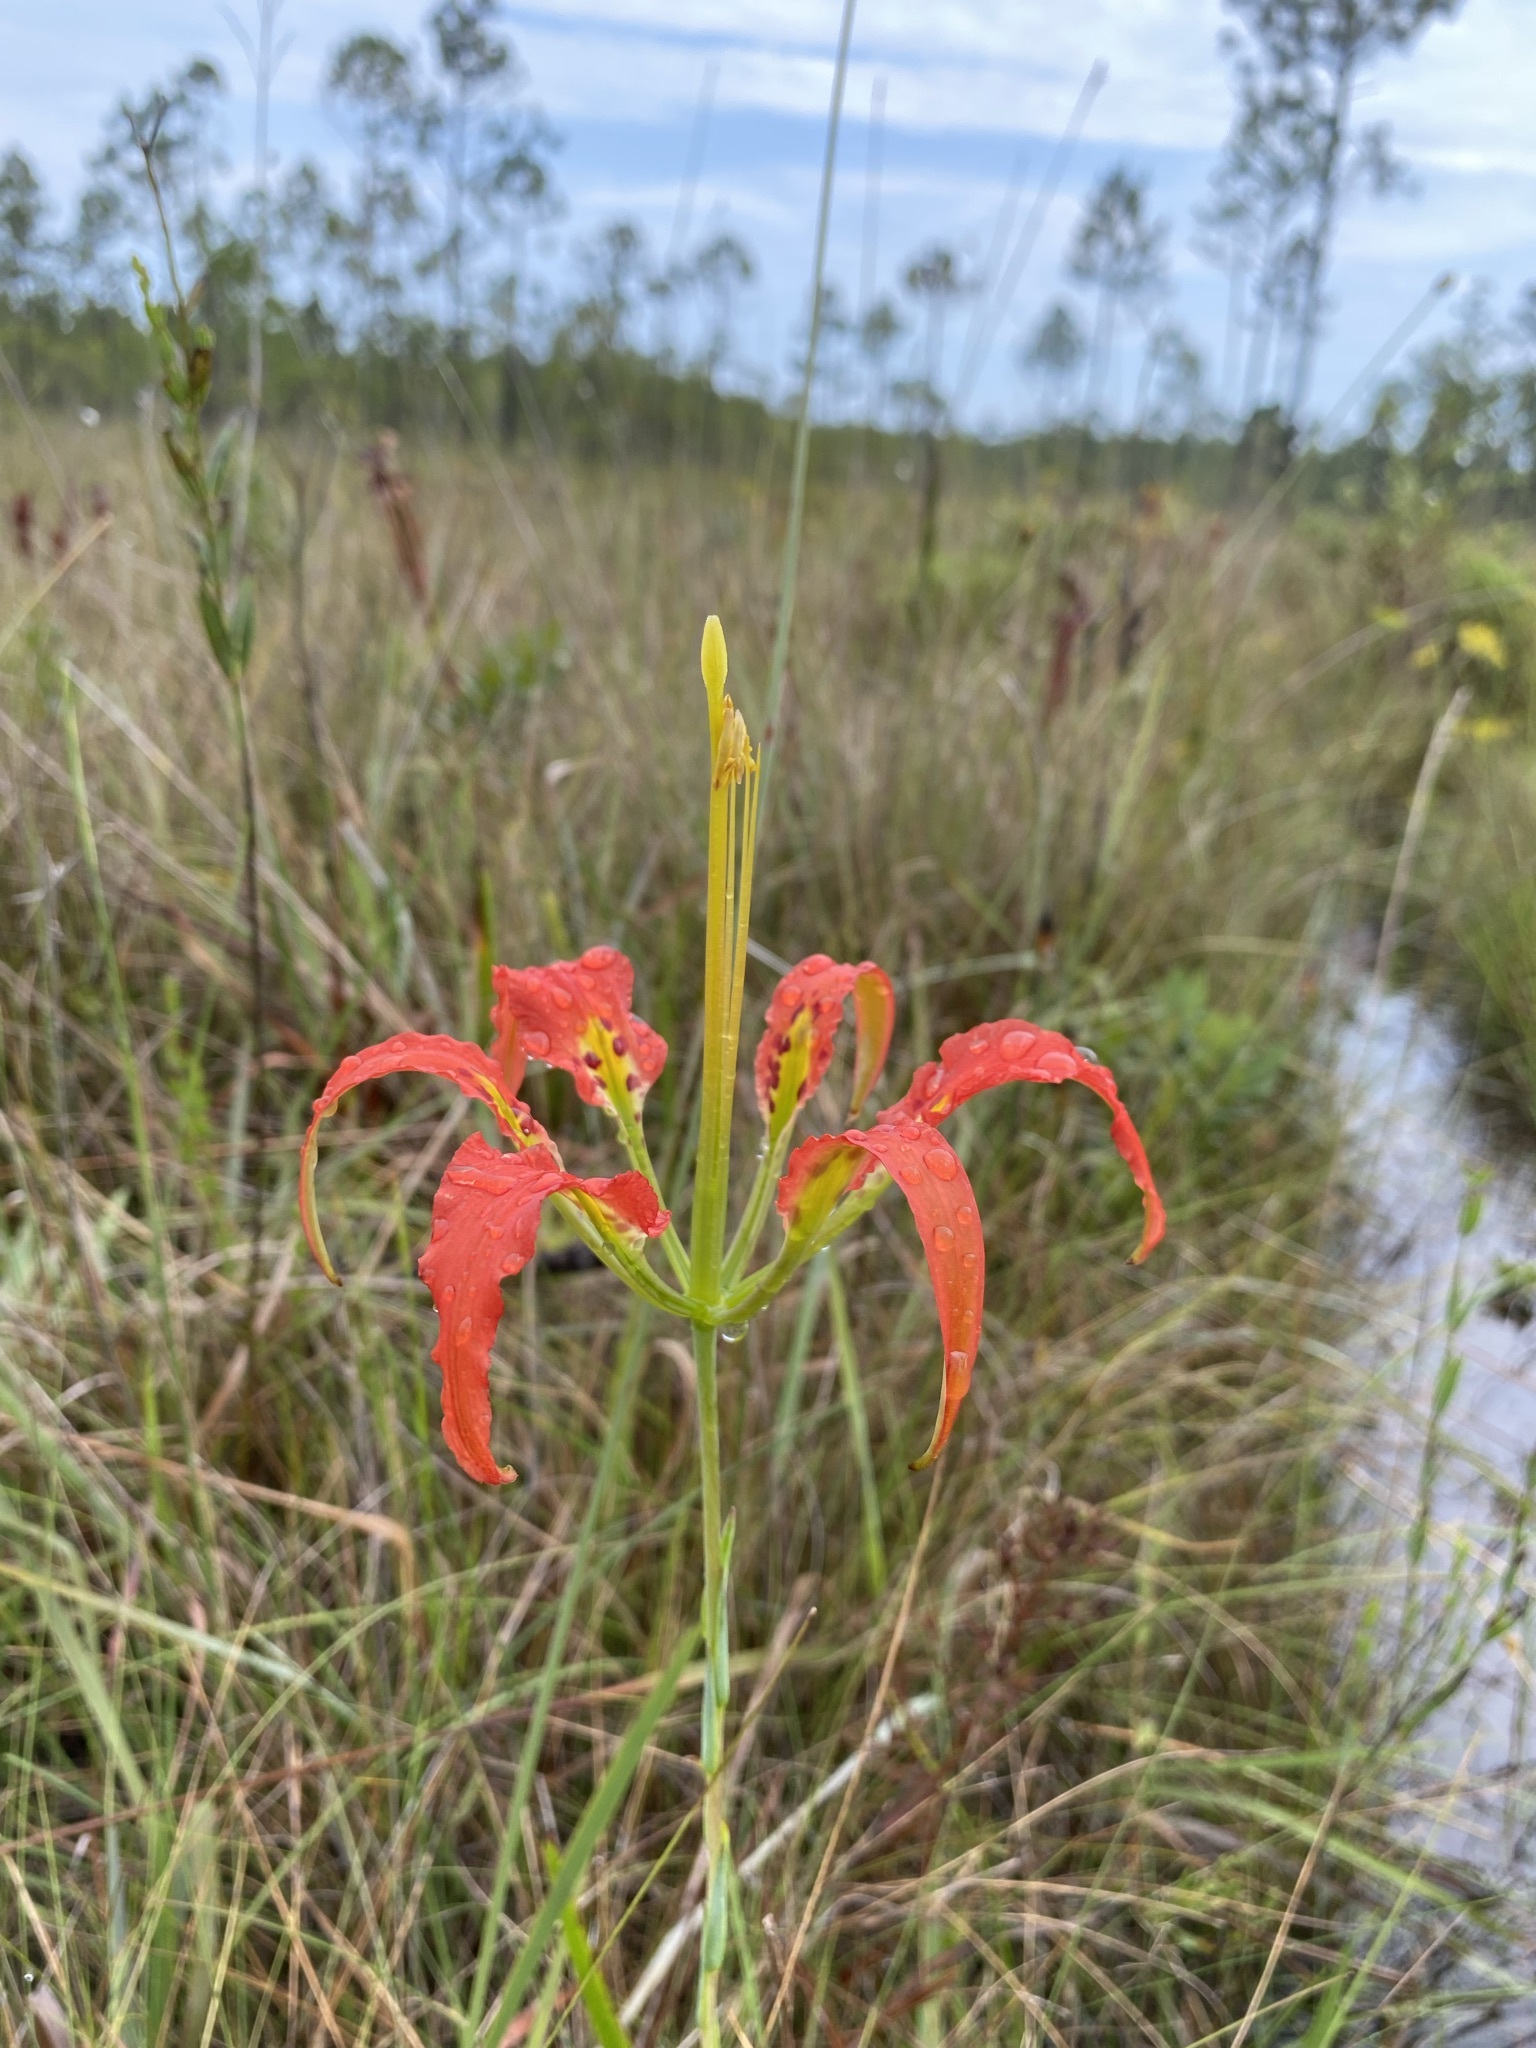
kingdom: Plantae
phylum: Tracheophyta
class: Liliopsida
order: Liliales
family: Liliaceae
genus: Lilium
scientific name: Lilium catesbaei
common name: Catesby's lily
